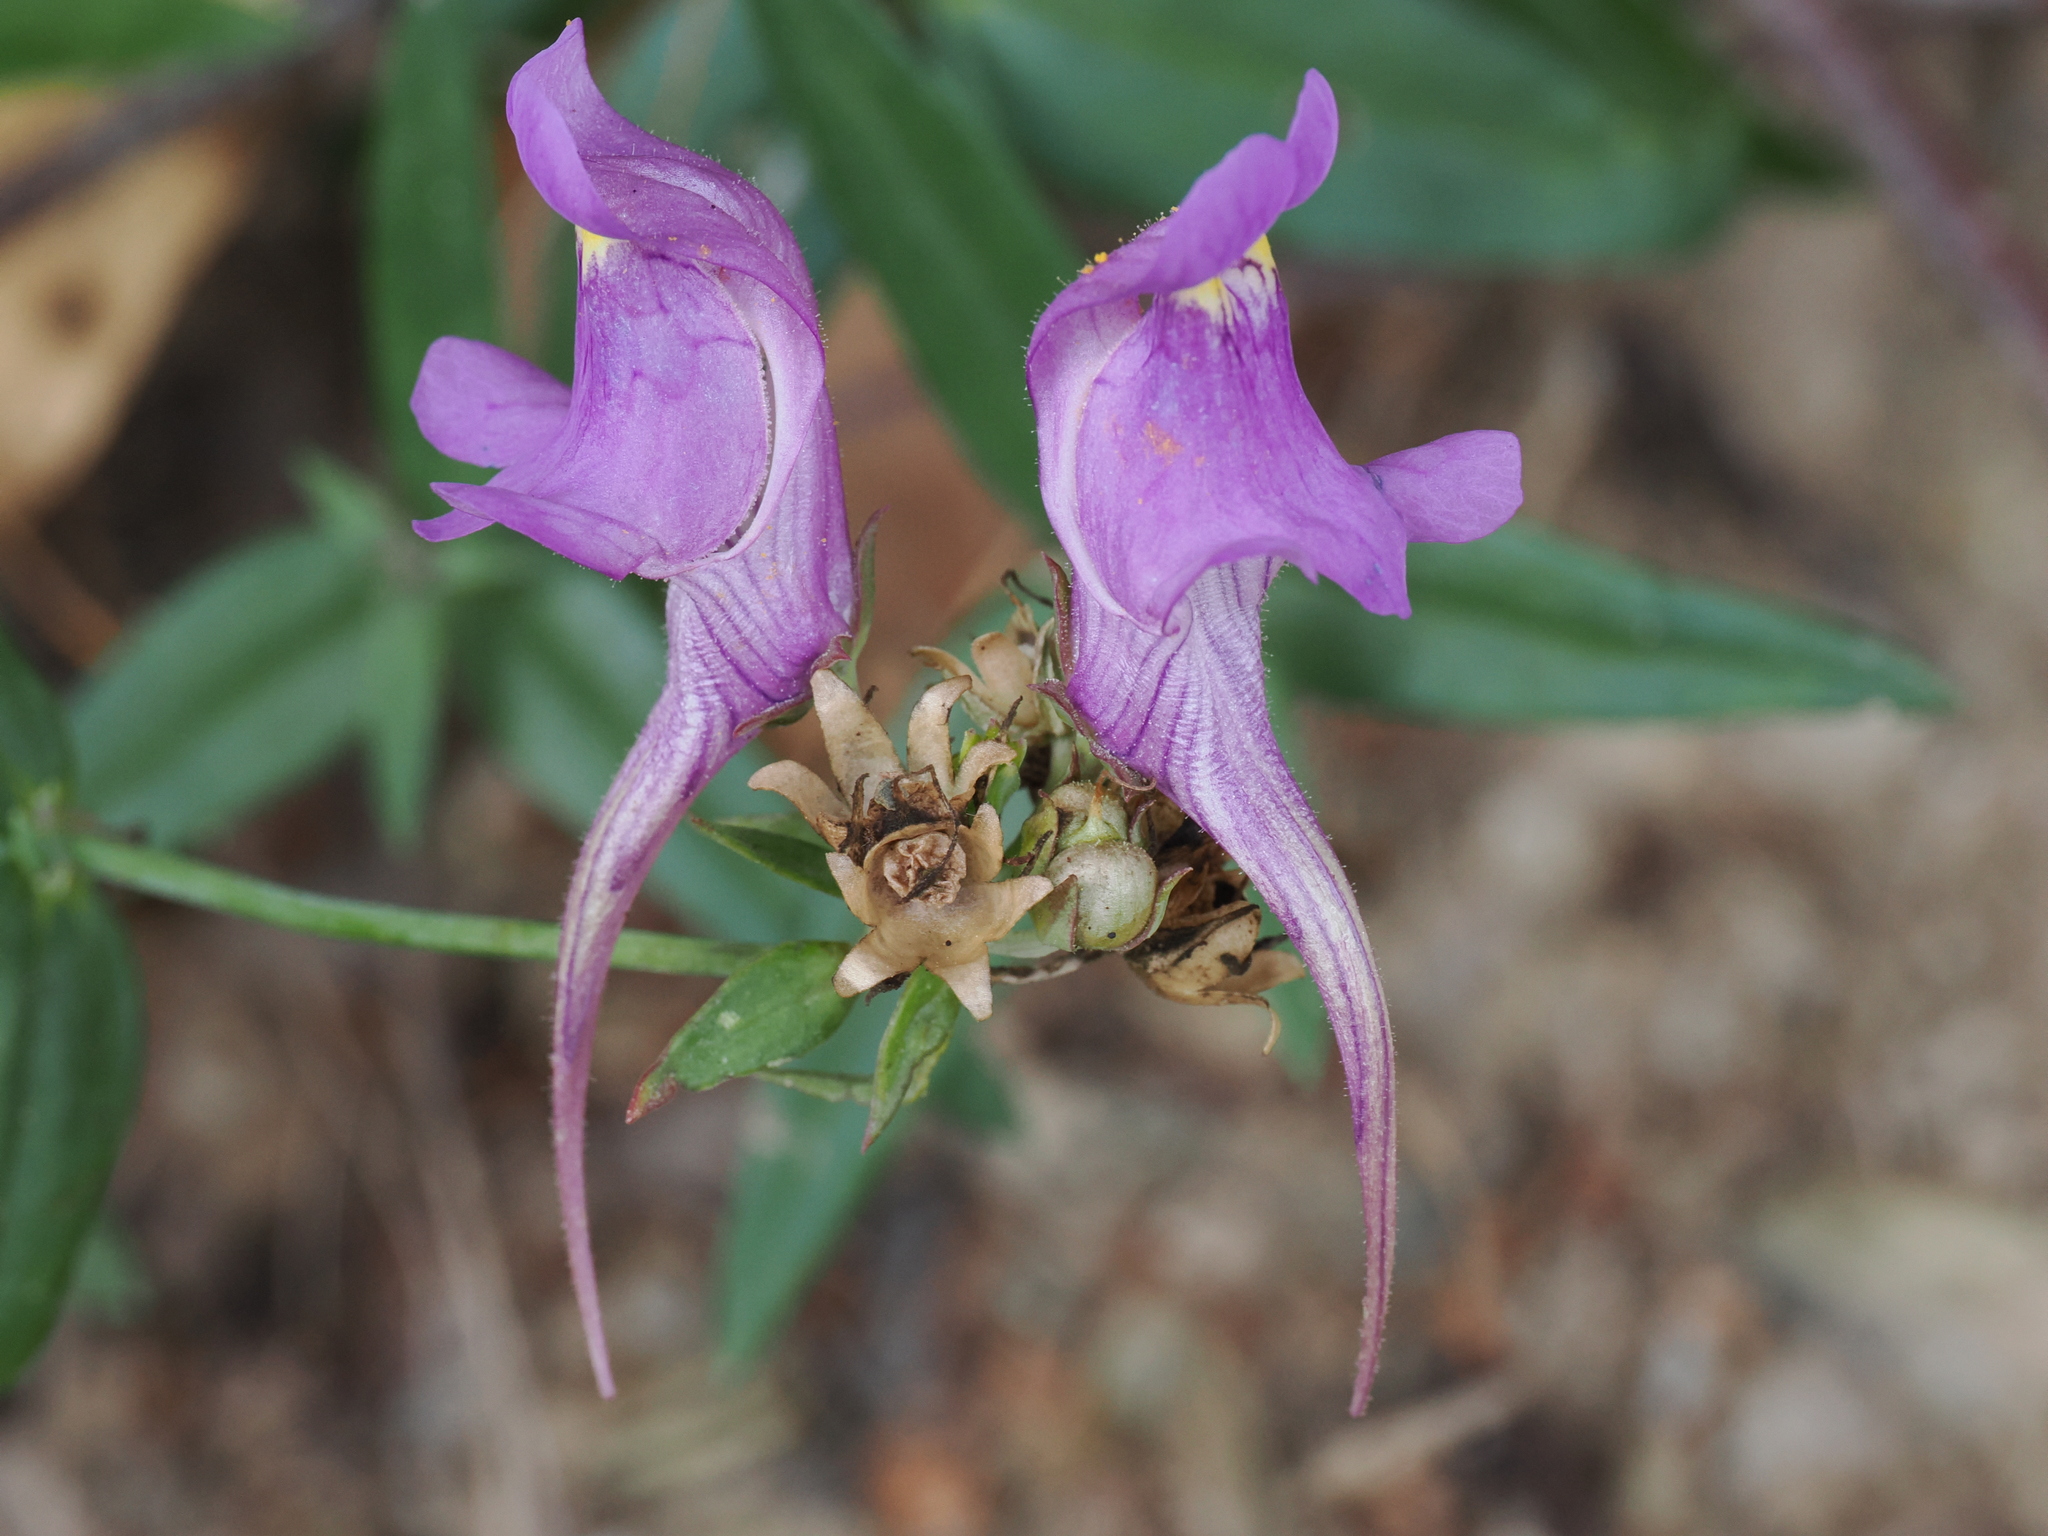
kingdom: Plantae
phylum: Tracheophyta
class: Magnoliopsida
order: Lamiales
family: Plantaginaceae
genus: Linaria
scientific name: Linaria triornithophora
